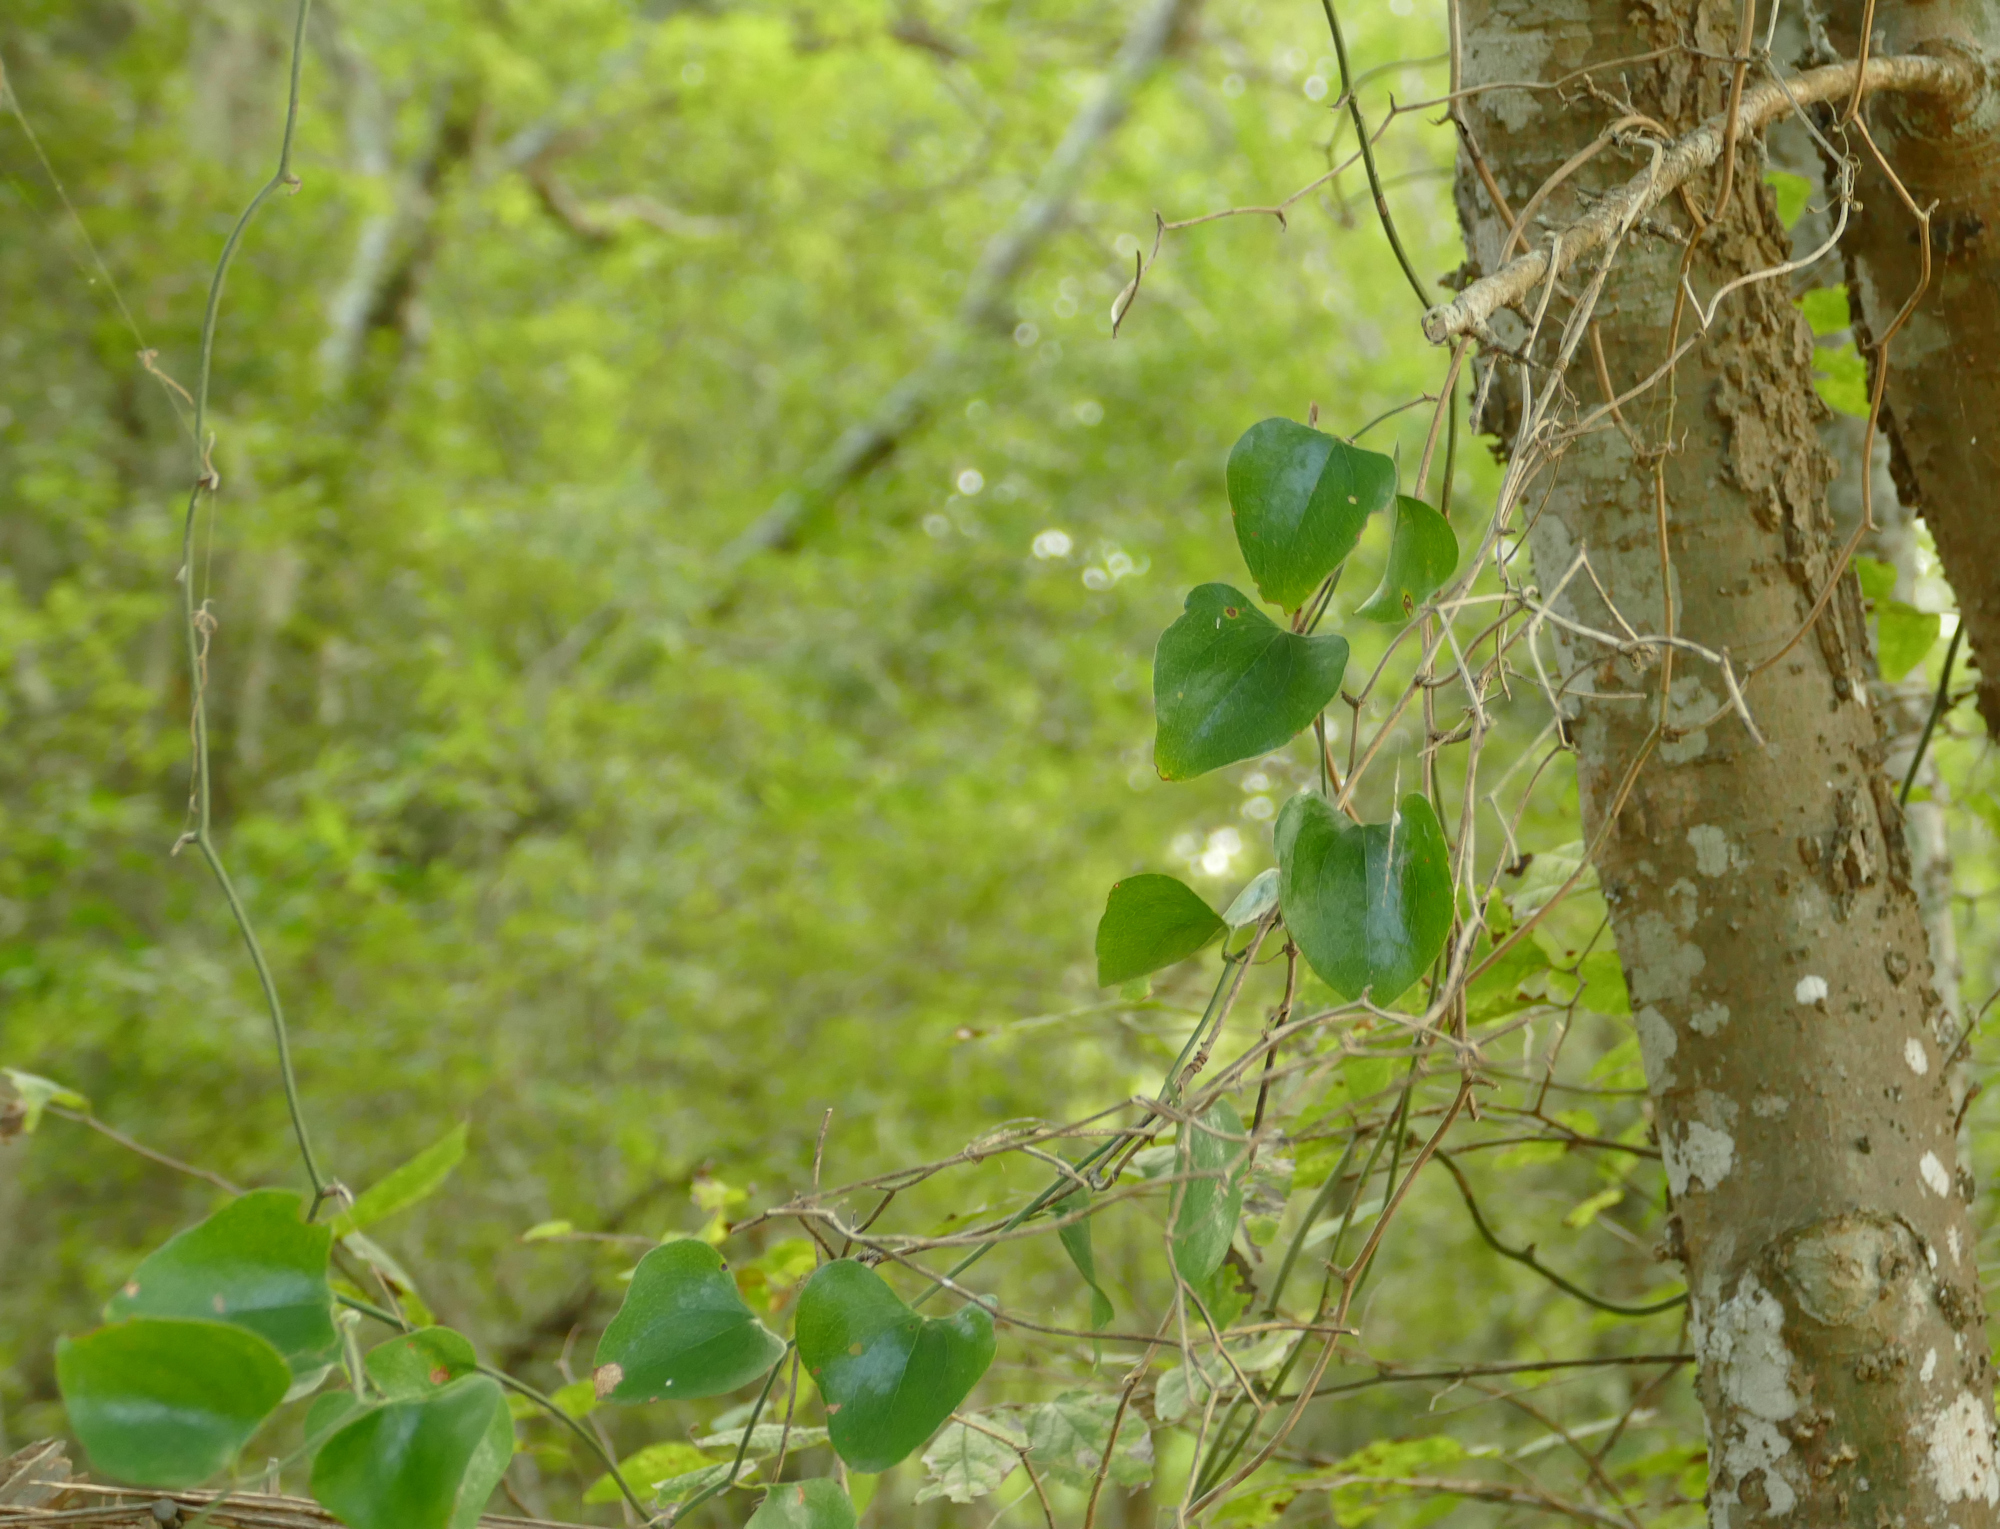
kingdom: Plantae
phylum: Tracheophyta
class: Liliopsida
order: Liliales
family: Smilacaceae
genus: Smilax
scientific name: Smilax bona-nox
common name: Catbrier
